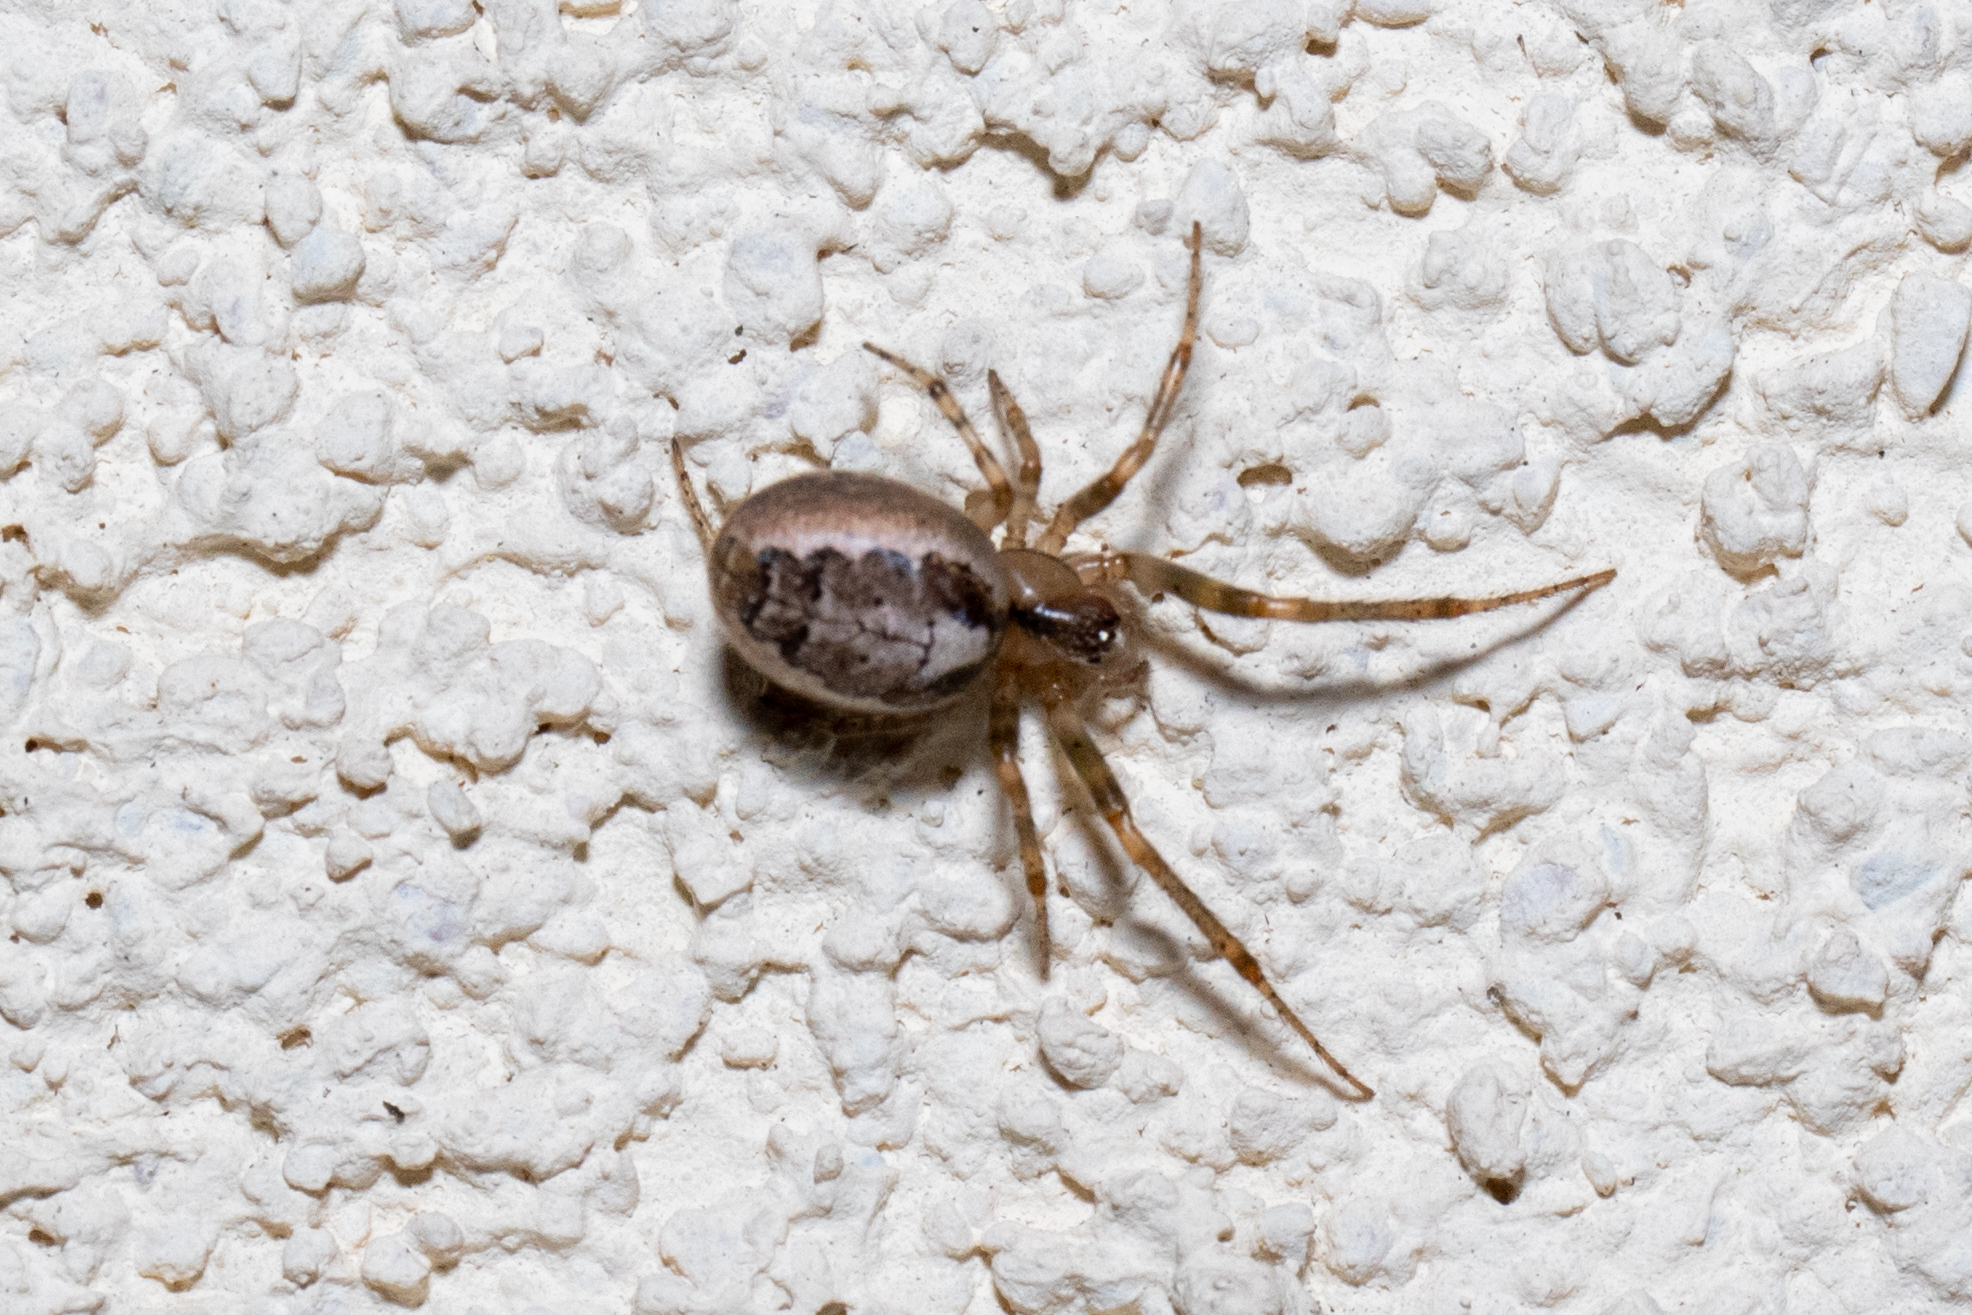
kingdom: Animalia
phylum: Arthropoda
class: Arachnida
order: Araneae
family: Araneidae
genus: Zygiella
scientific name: Zygiella x-notata
